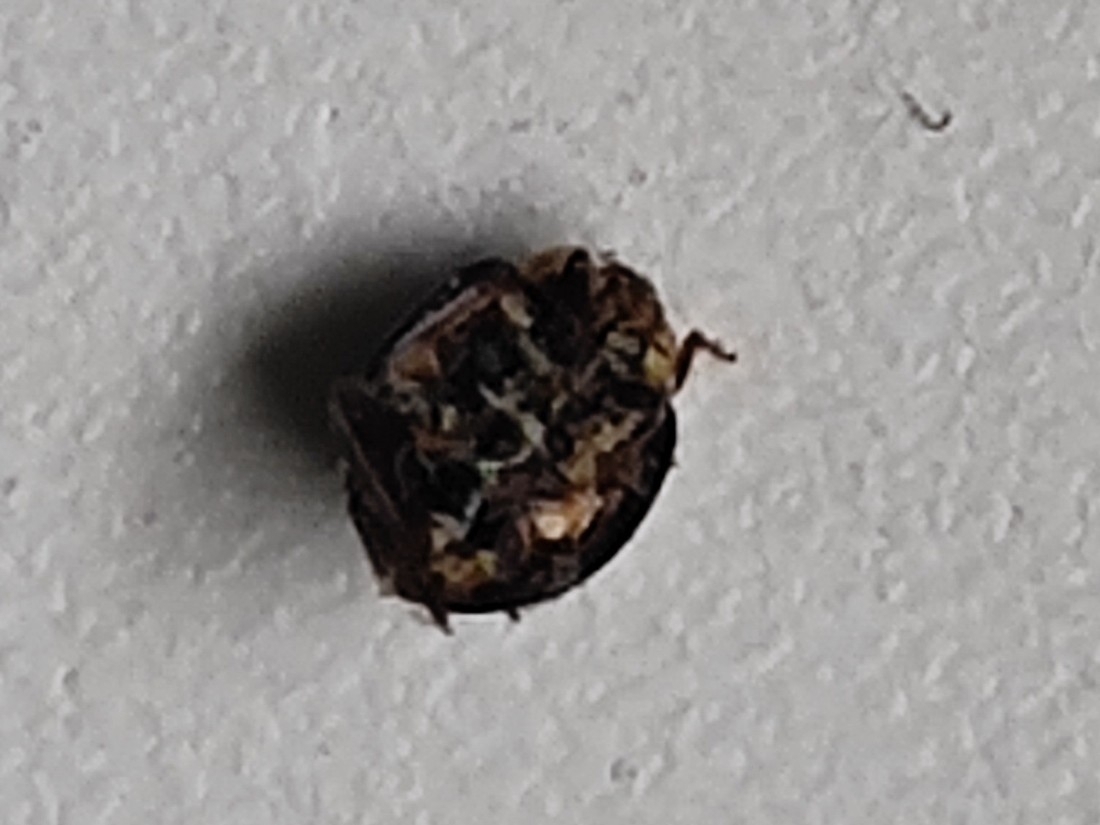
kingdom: Animalia
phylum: Arthropoda
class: Insecta
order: Coleoptera
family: Coccinellidae
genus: Harmonia
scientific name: Harmonia axyridis
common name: Harlequin ladybird
